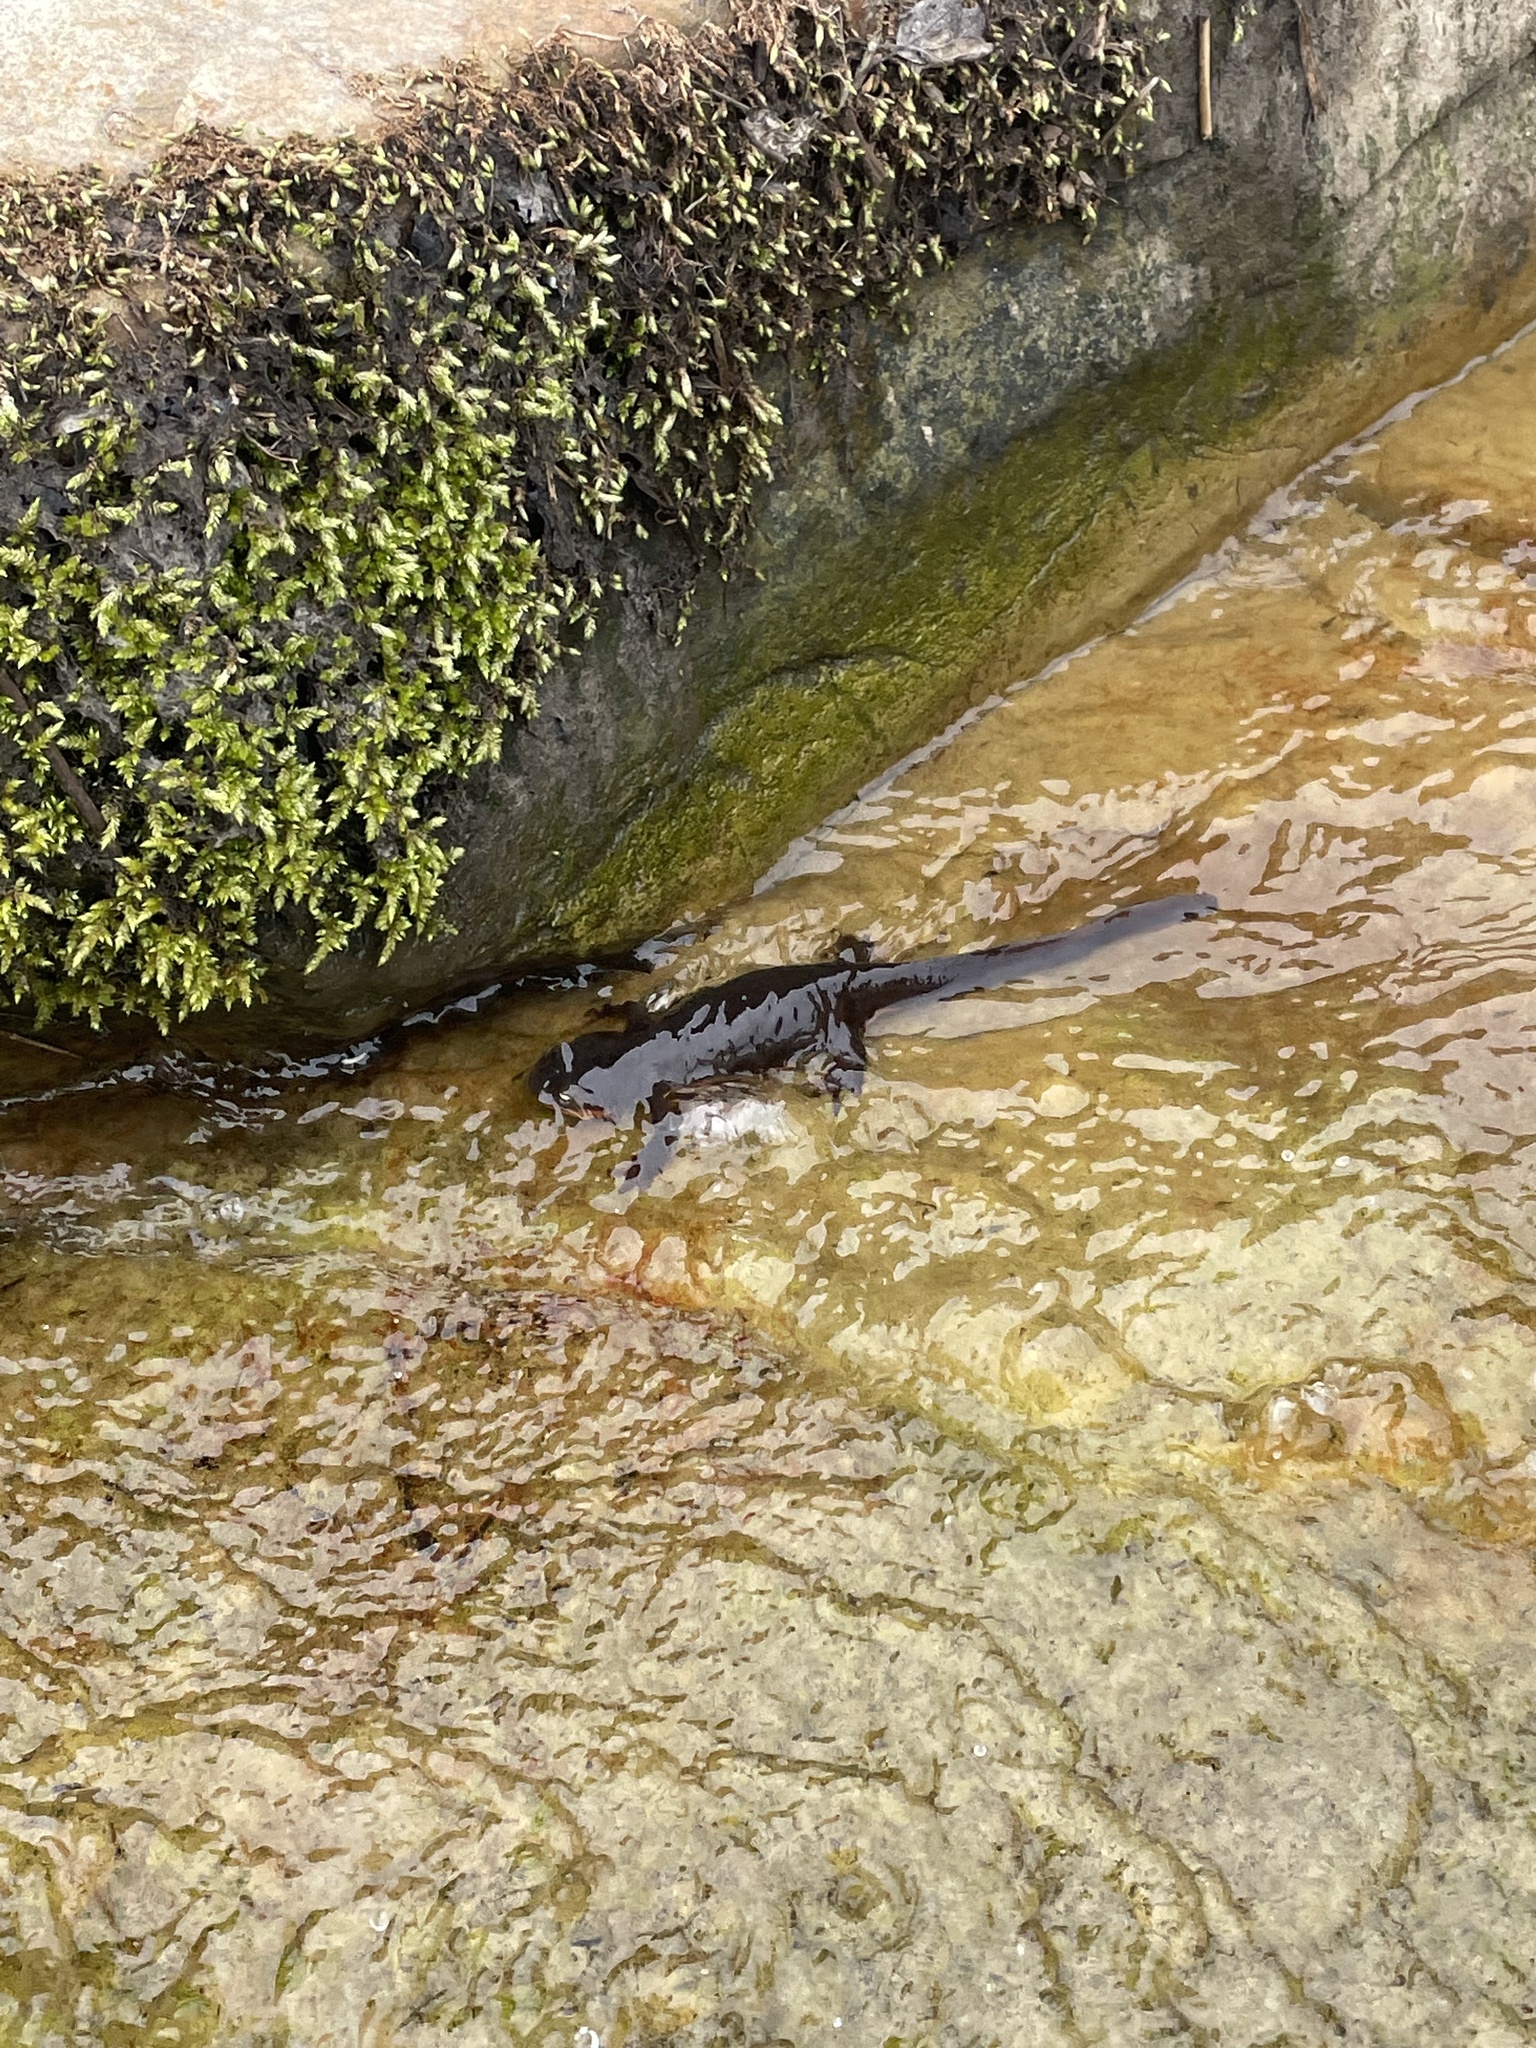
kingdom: Animalia
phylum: Chordata
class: Amphibia
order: Caudata
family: Salamandridae
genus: Taricha
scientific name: Taricha granulosa
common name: Roughskin newt
